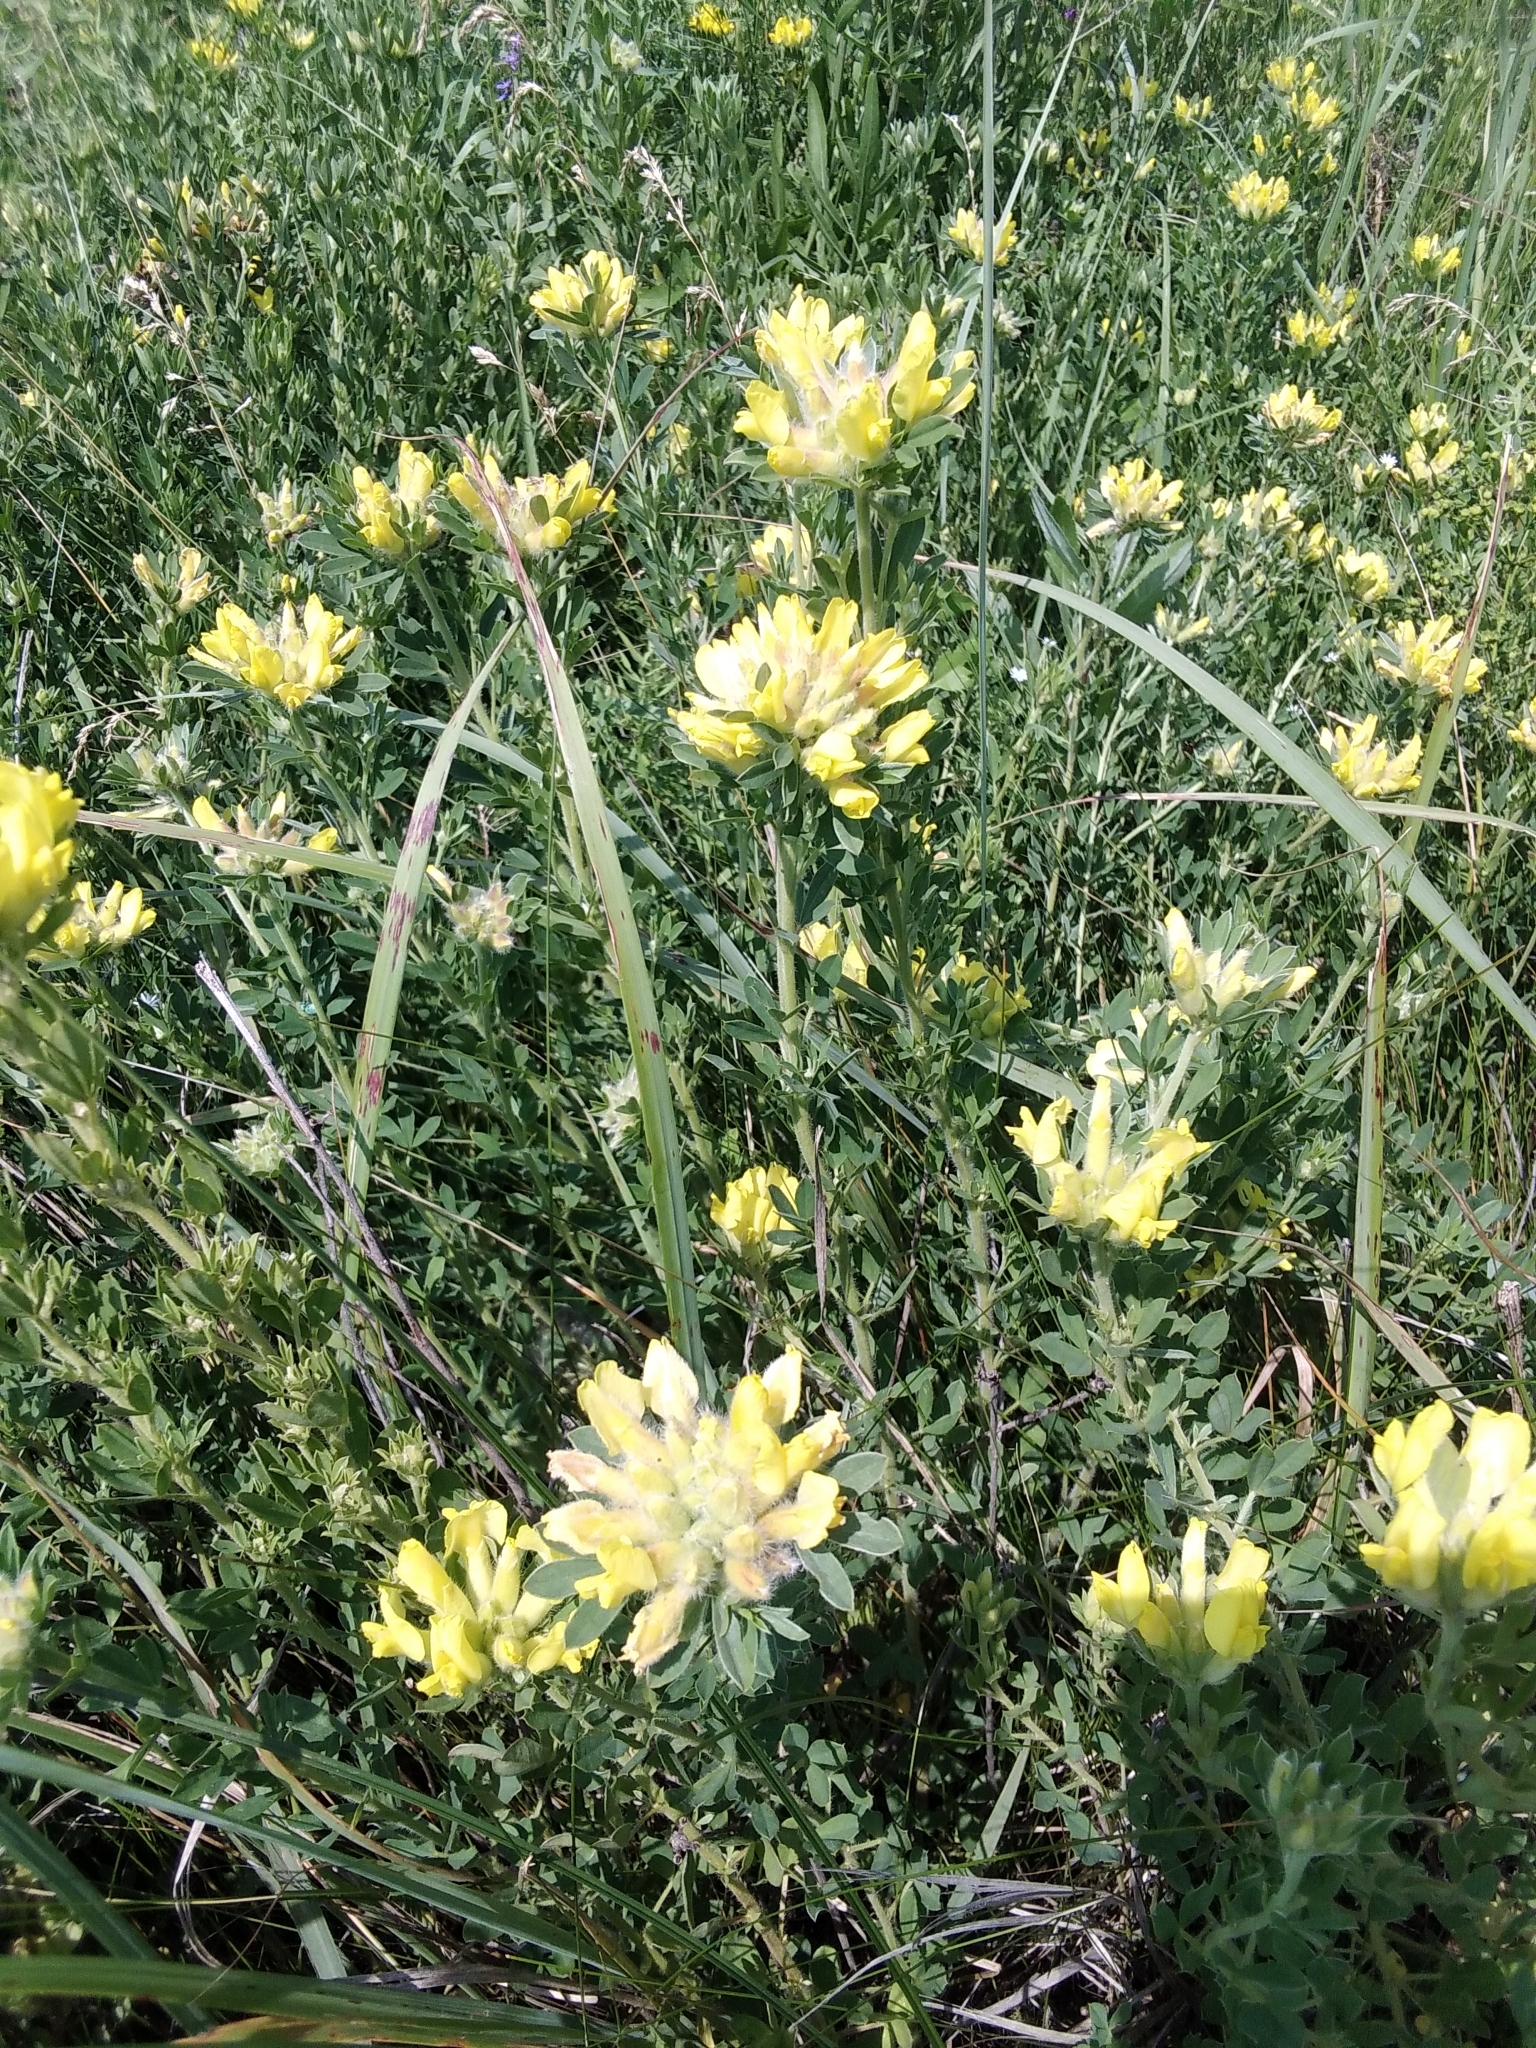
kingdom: Plantae
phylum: Tracheophyta
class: Magnoliopsida
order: Fabales
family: Fabaceae
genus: Chamaecytisus
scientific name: Chamaecytisus austriacus
